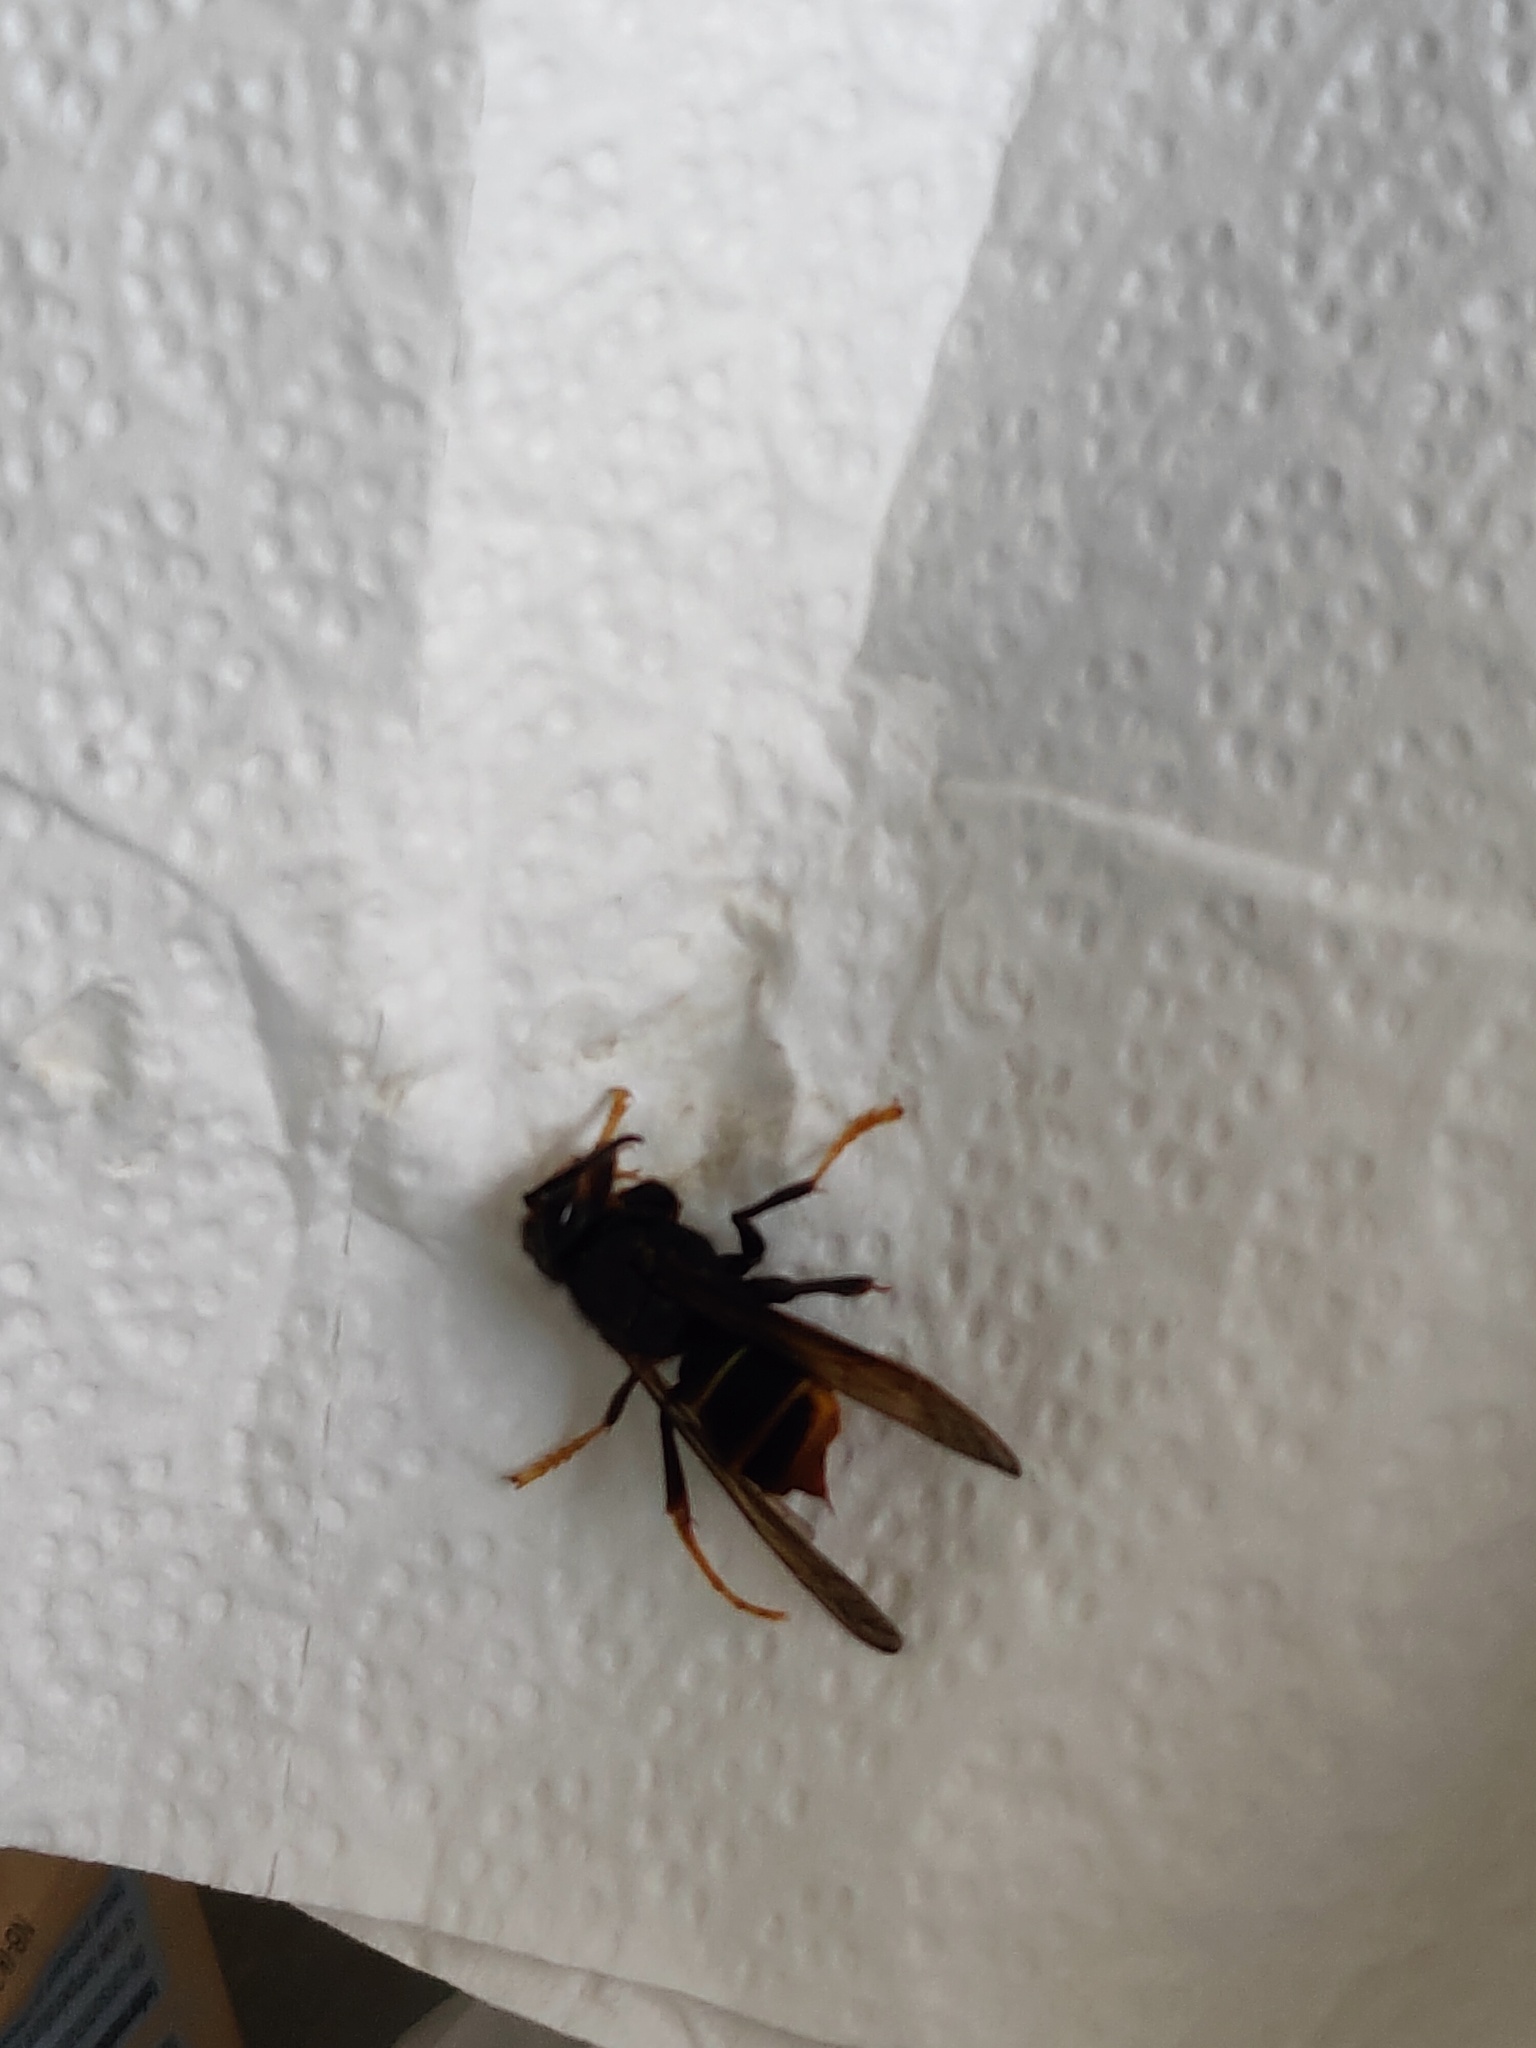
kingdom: Animalia
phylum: Arthropoda
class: Insecta
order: Hymenoptera
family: Vespidae
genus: Vespa
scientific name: Vespa velutina
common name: Asian hornet
